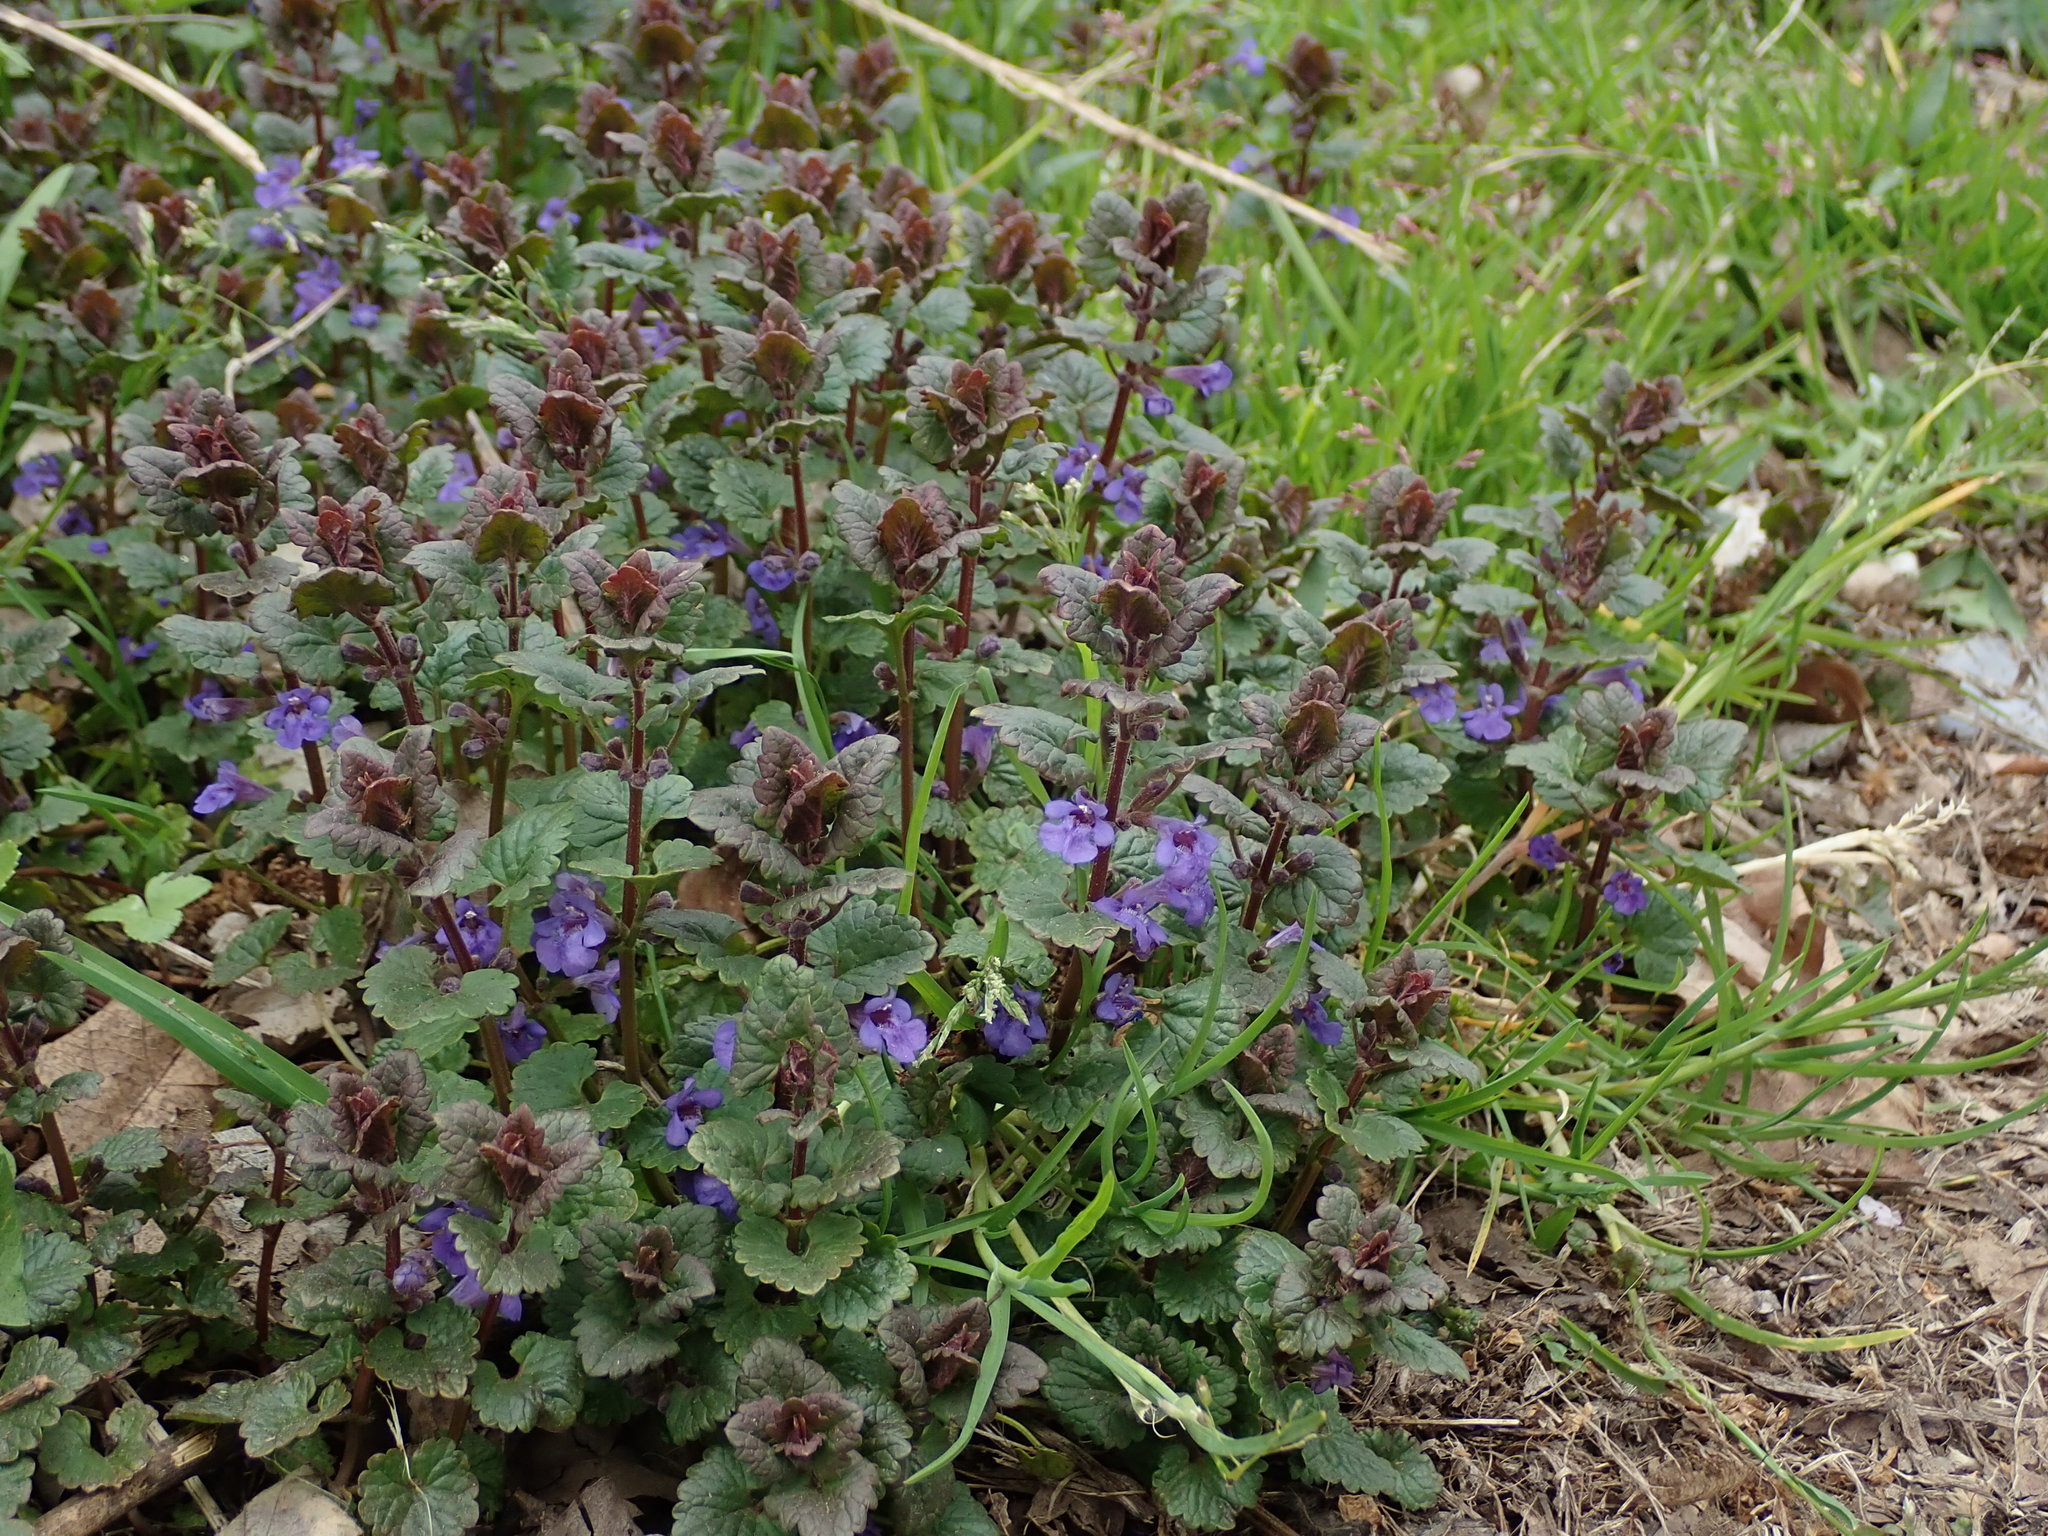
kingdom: Plantae
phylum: Tracheophyta
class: Magnoliopsida
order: Lamiales
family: Lamiaceae
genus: Glechoma
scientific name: Glechoma hederacea
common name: Ground ivy
